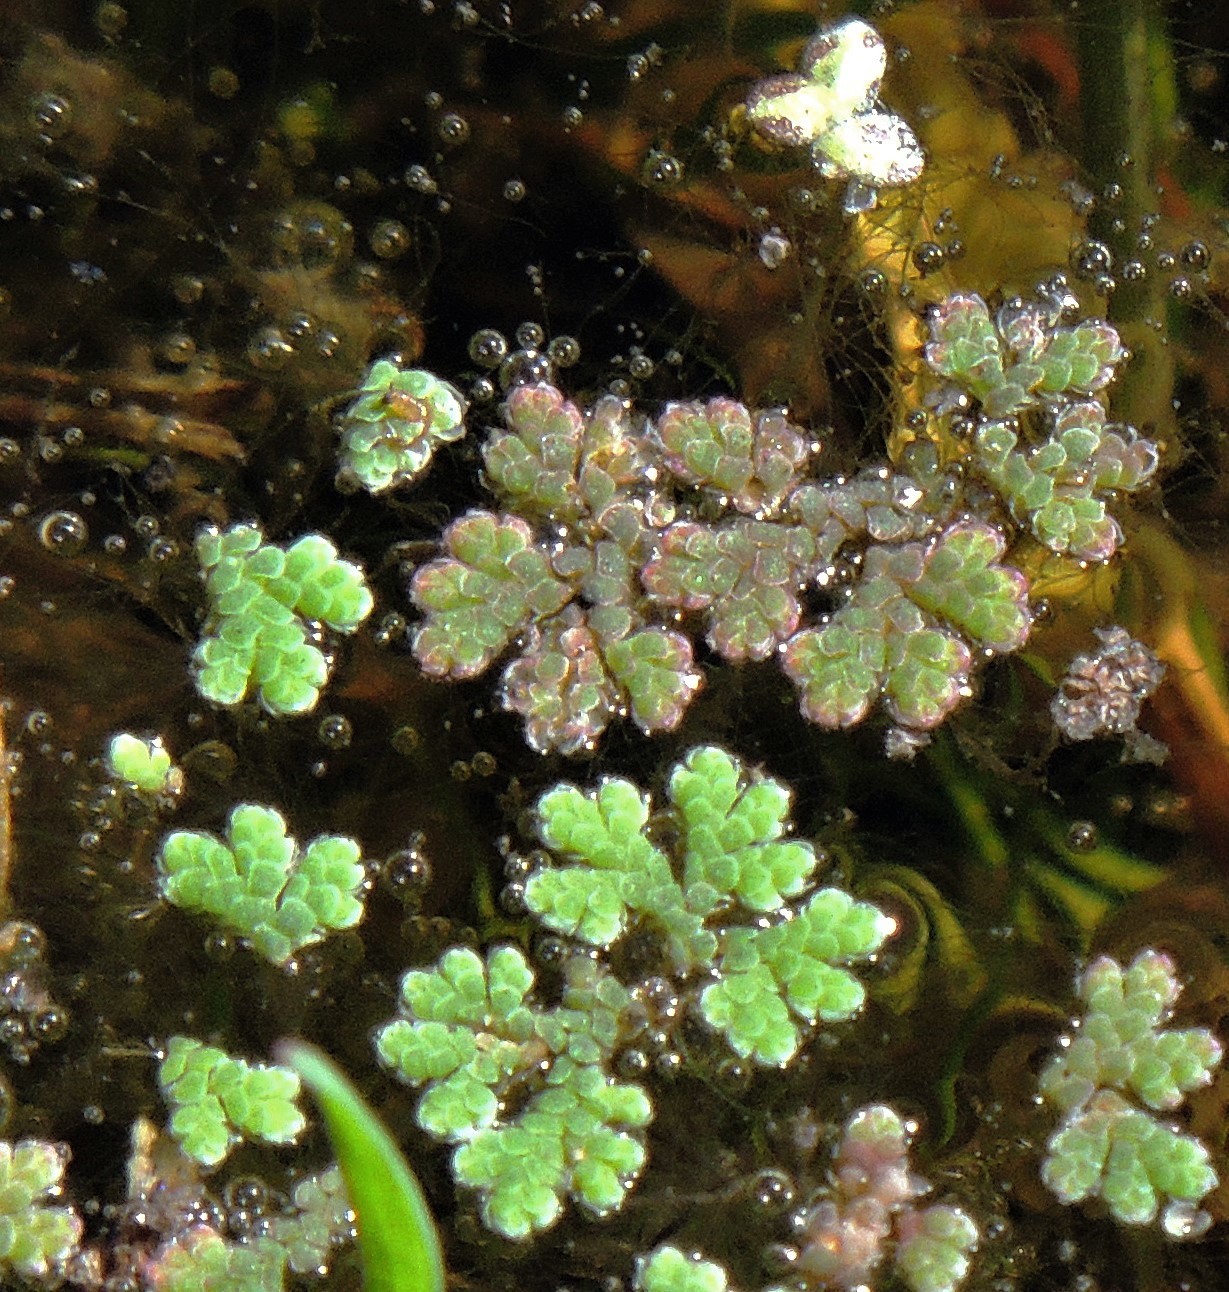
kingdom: Plantae
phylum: Tracheophyta
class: Polypodiopsida
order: Salviniales
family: Salviniaceae
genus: Azolla
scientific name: Azolla filiculoides
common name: Water fern
